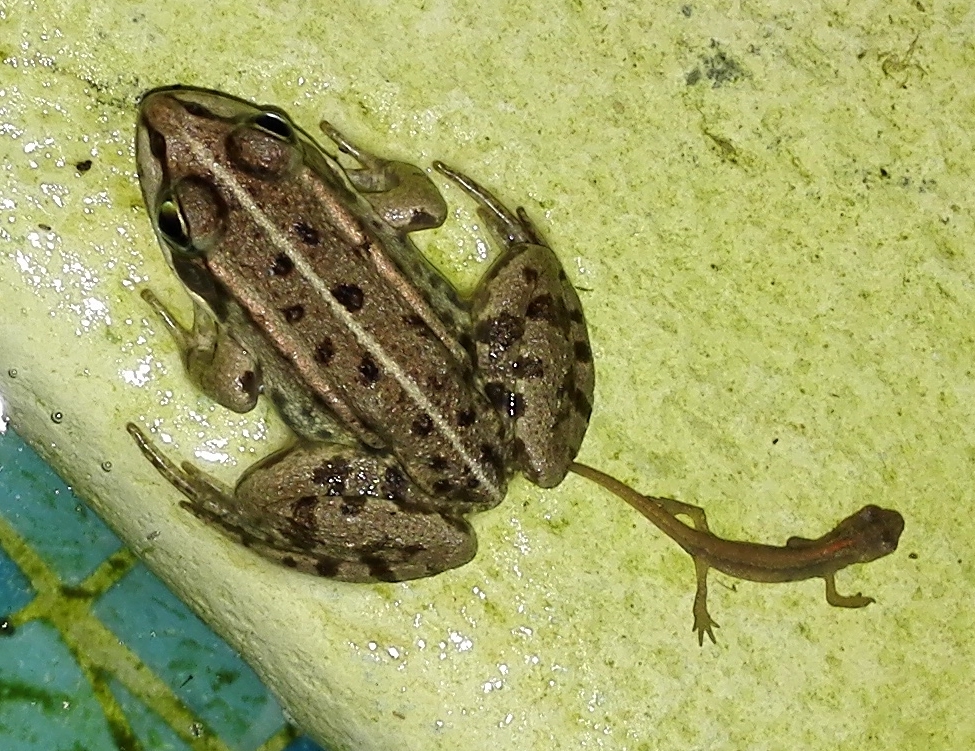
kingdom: Animalia
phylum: Chordata
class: Amphibia
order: Anura
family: Ranidae
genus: Pelophylax
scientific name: Pelophylax
